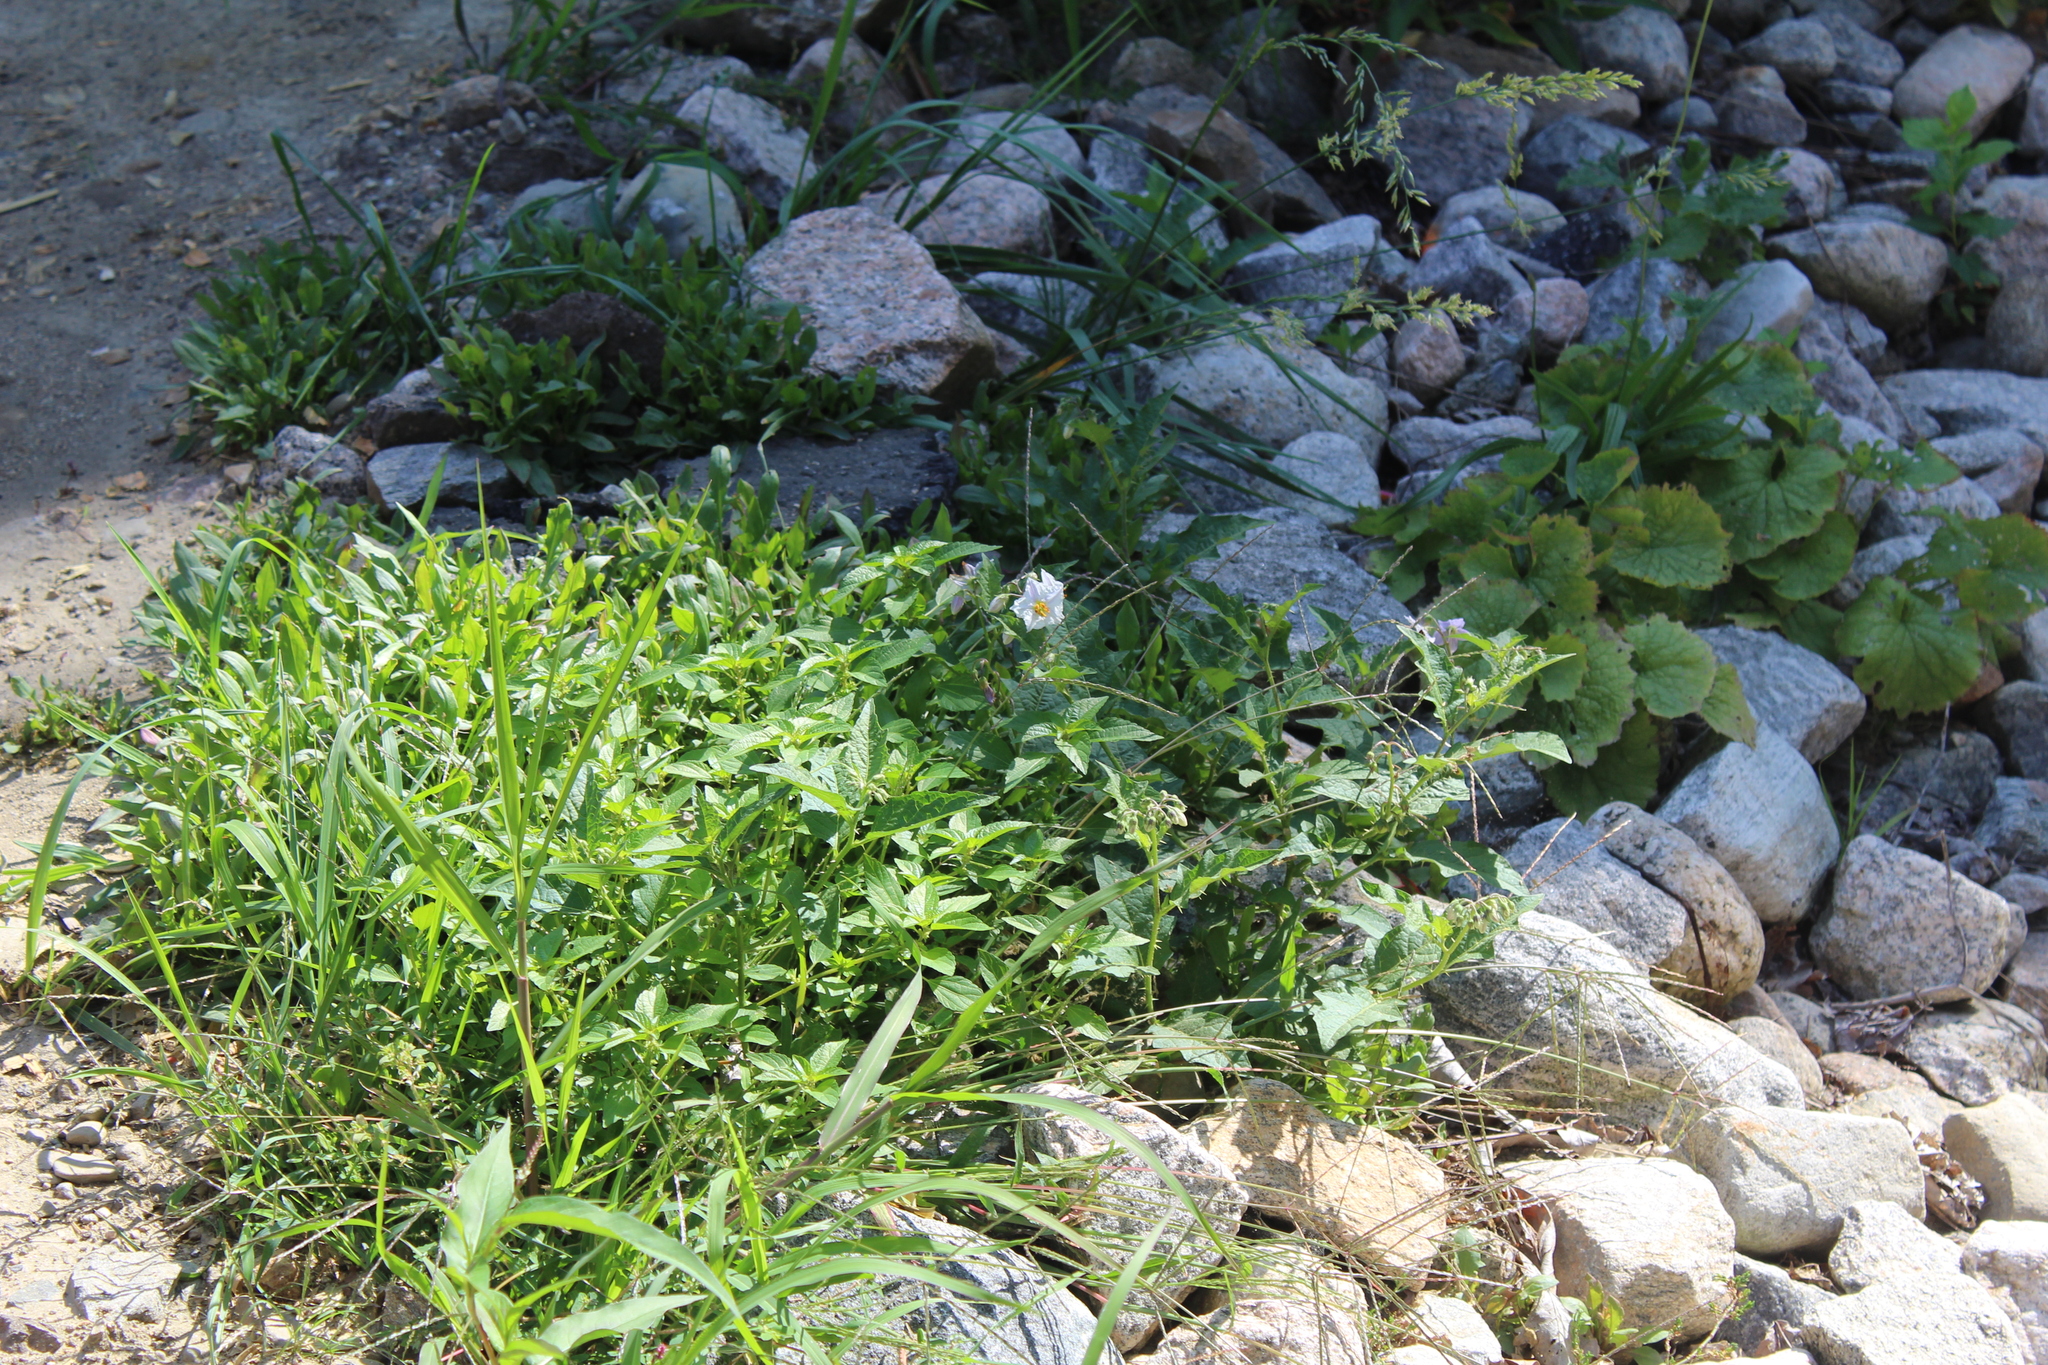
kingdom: Plantae
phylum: Tracheophyta
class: Magnoliopsida
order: Solanales
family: Solanaceae
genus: Solanum
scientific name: Solanum carolinense
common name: Horse-nettle
